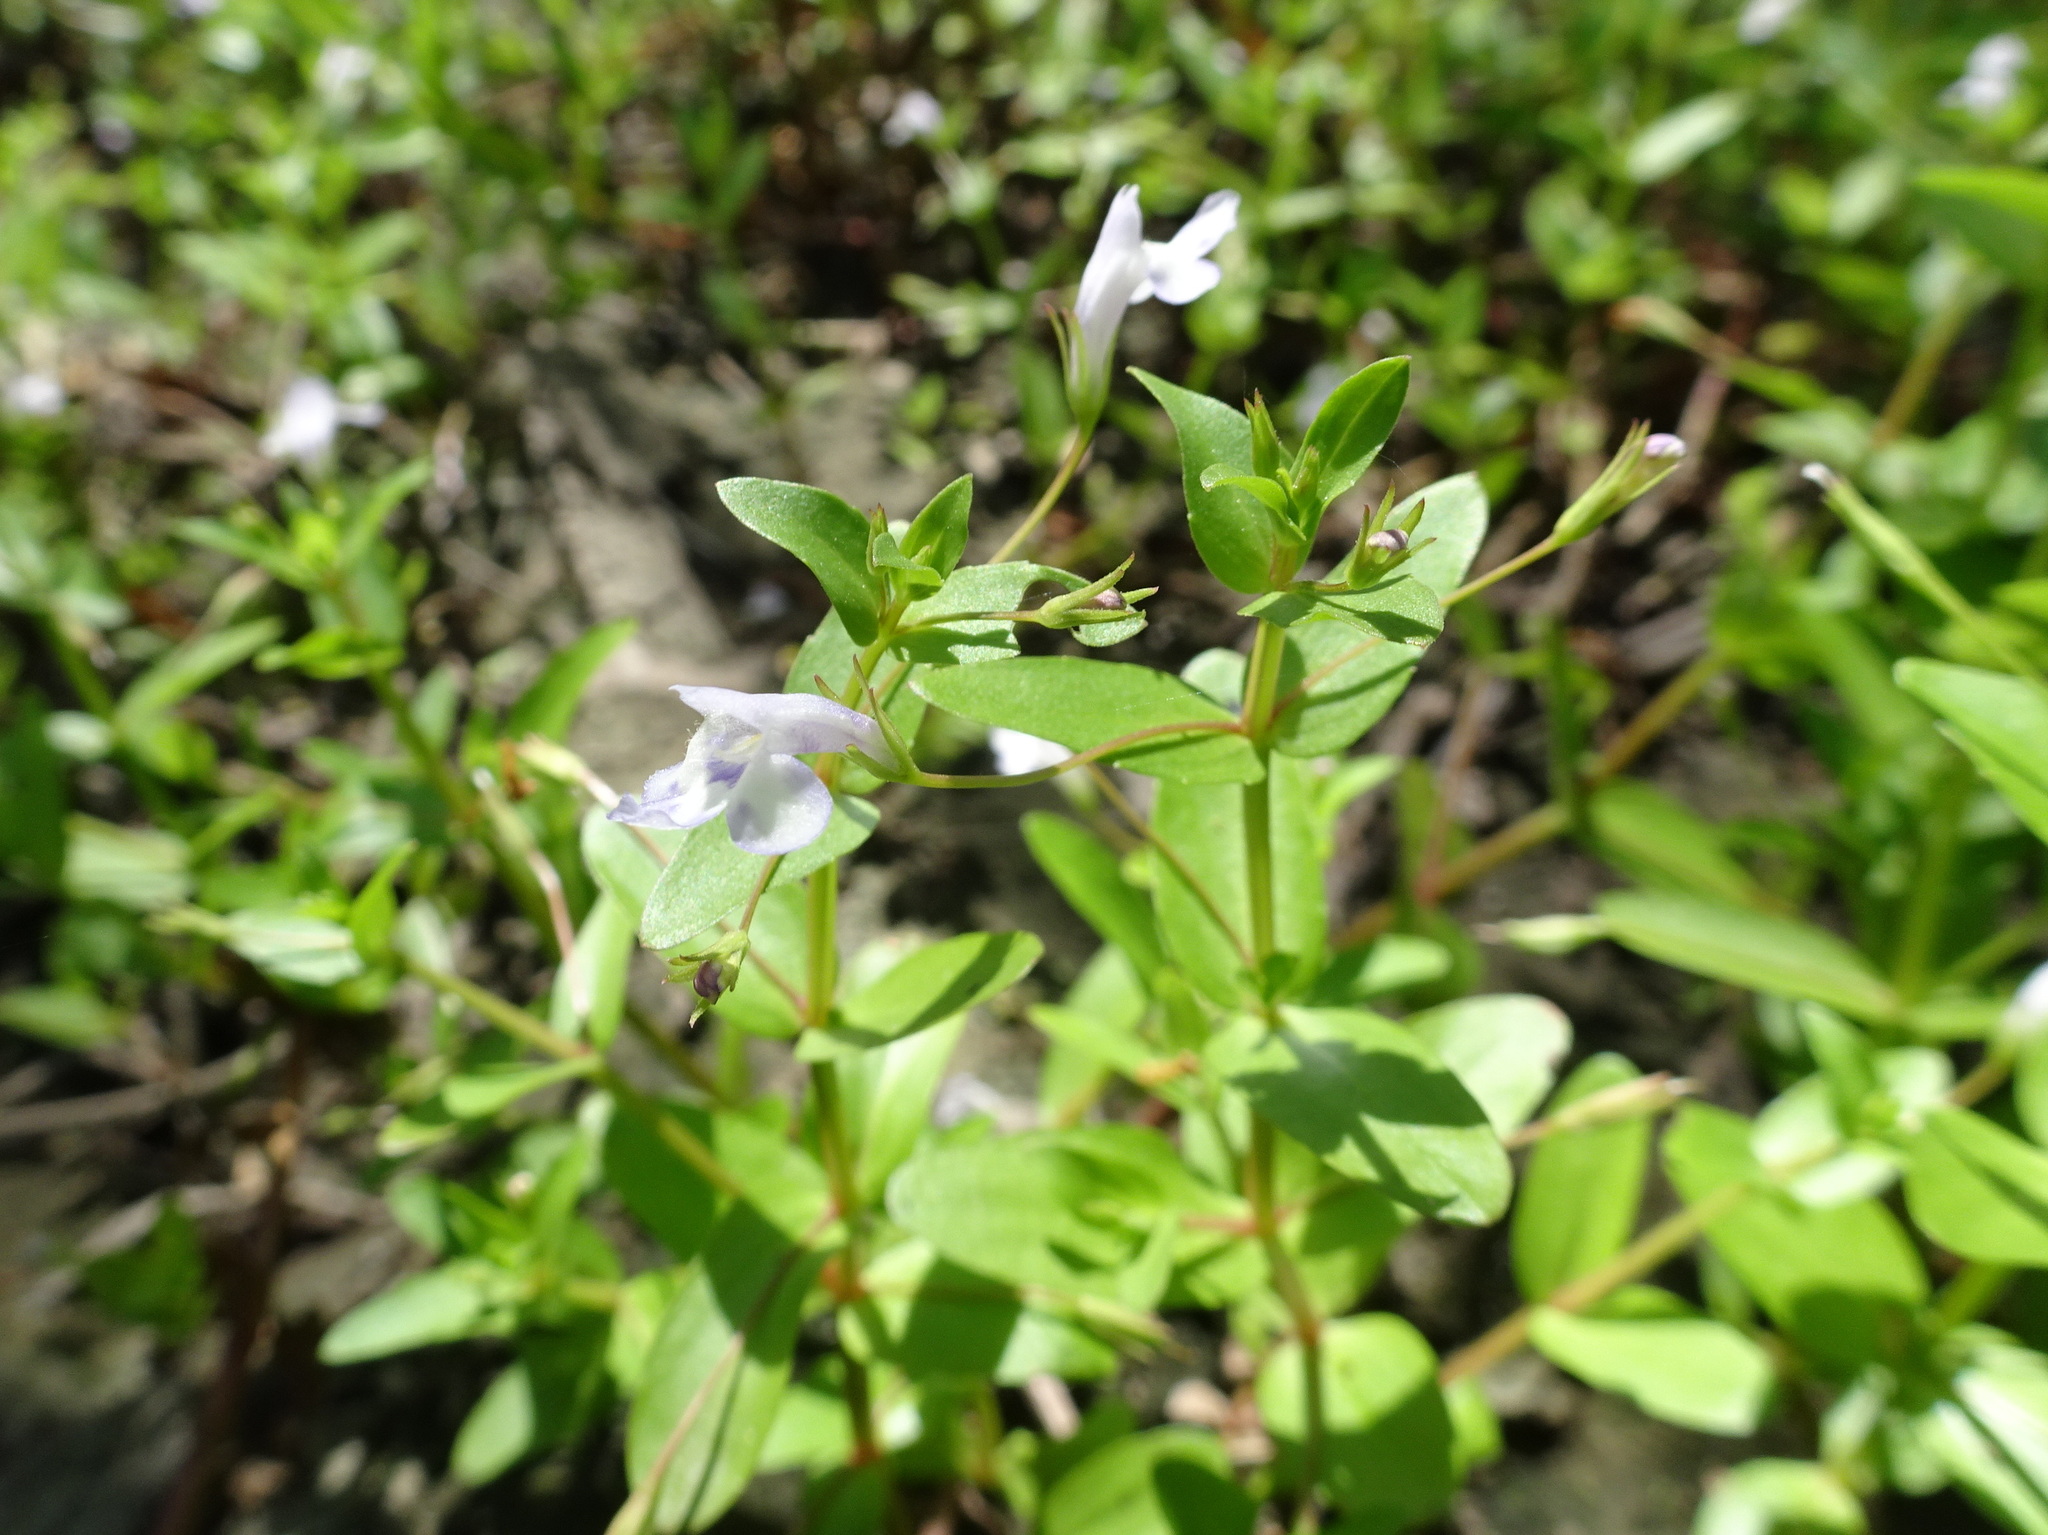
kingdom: Plantae
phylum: Tracheophyta
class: Magnoliopsida
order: Lamiales
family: Linderniaceae
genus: Lindernia
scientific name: Lindernia dubia
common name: Annual false pimpernel
